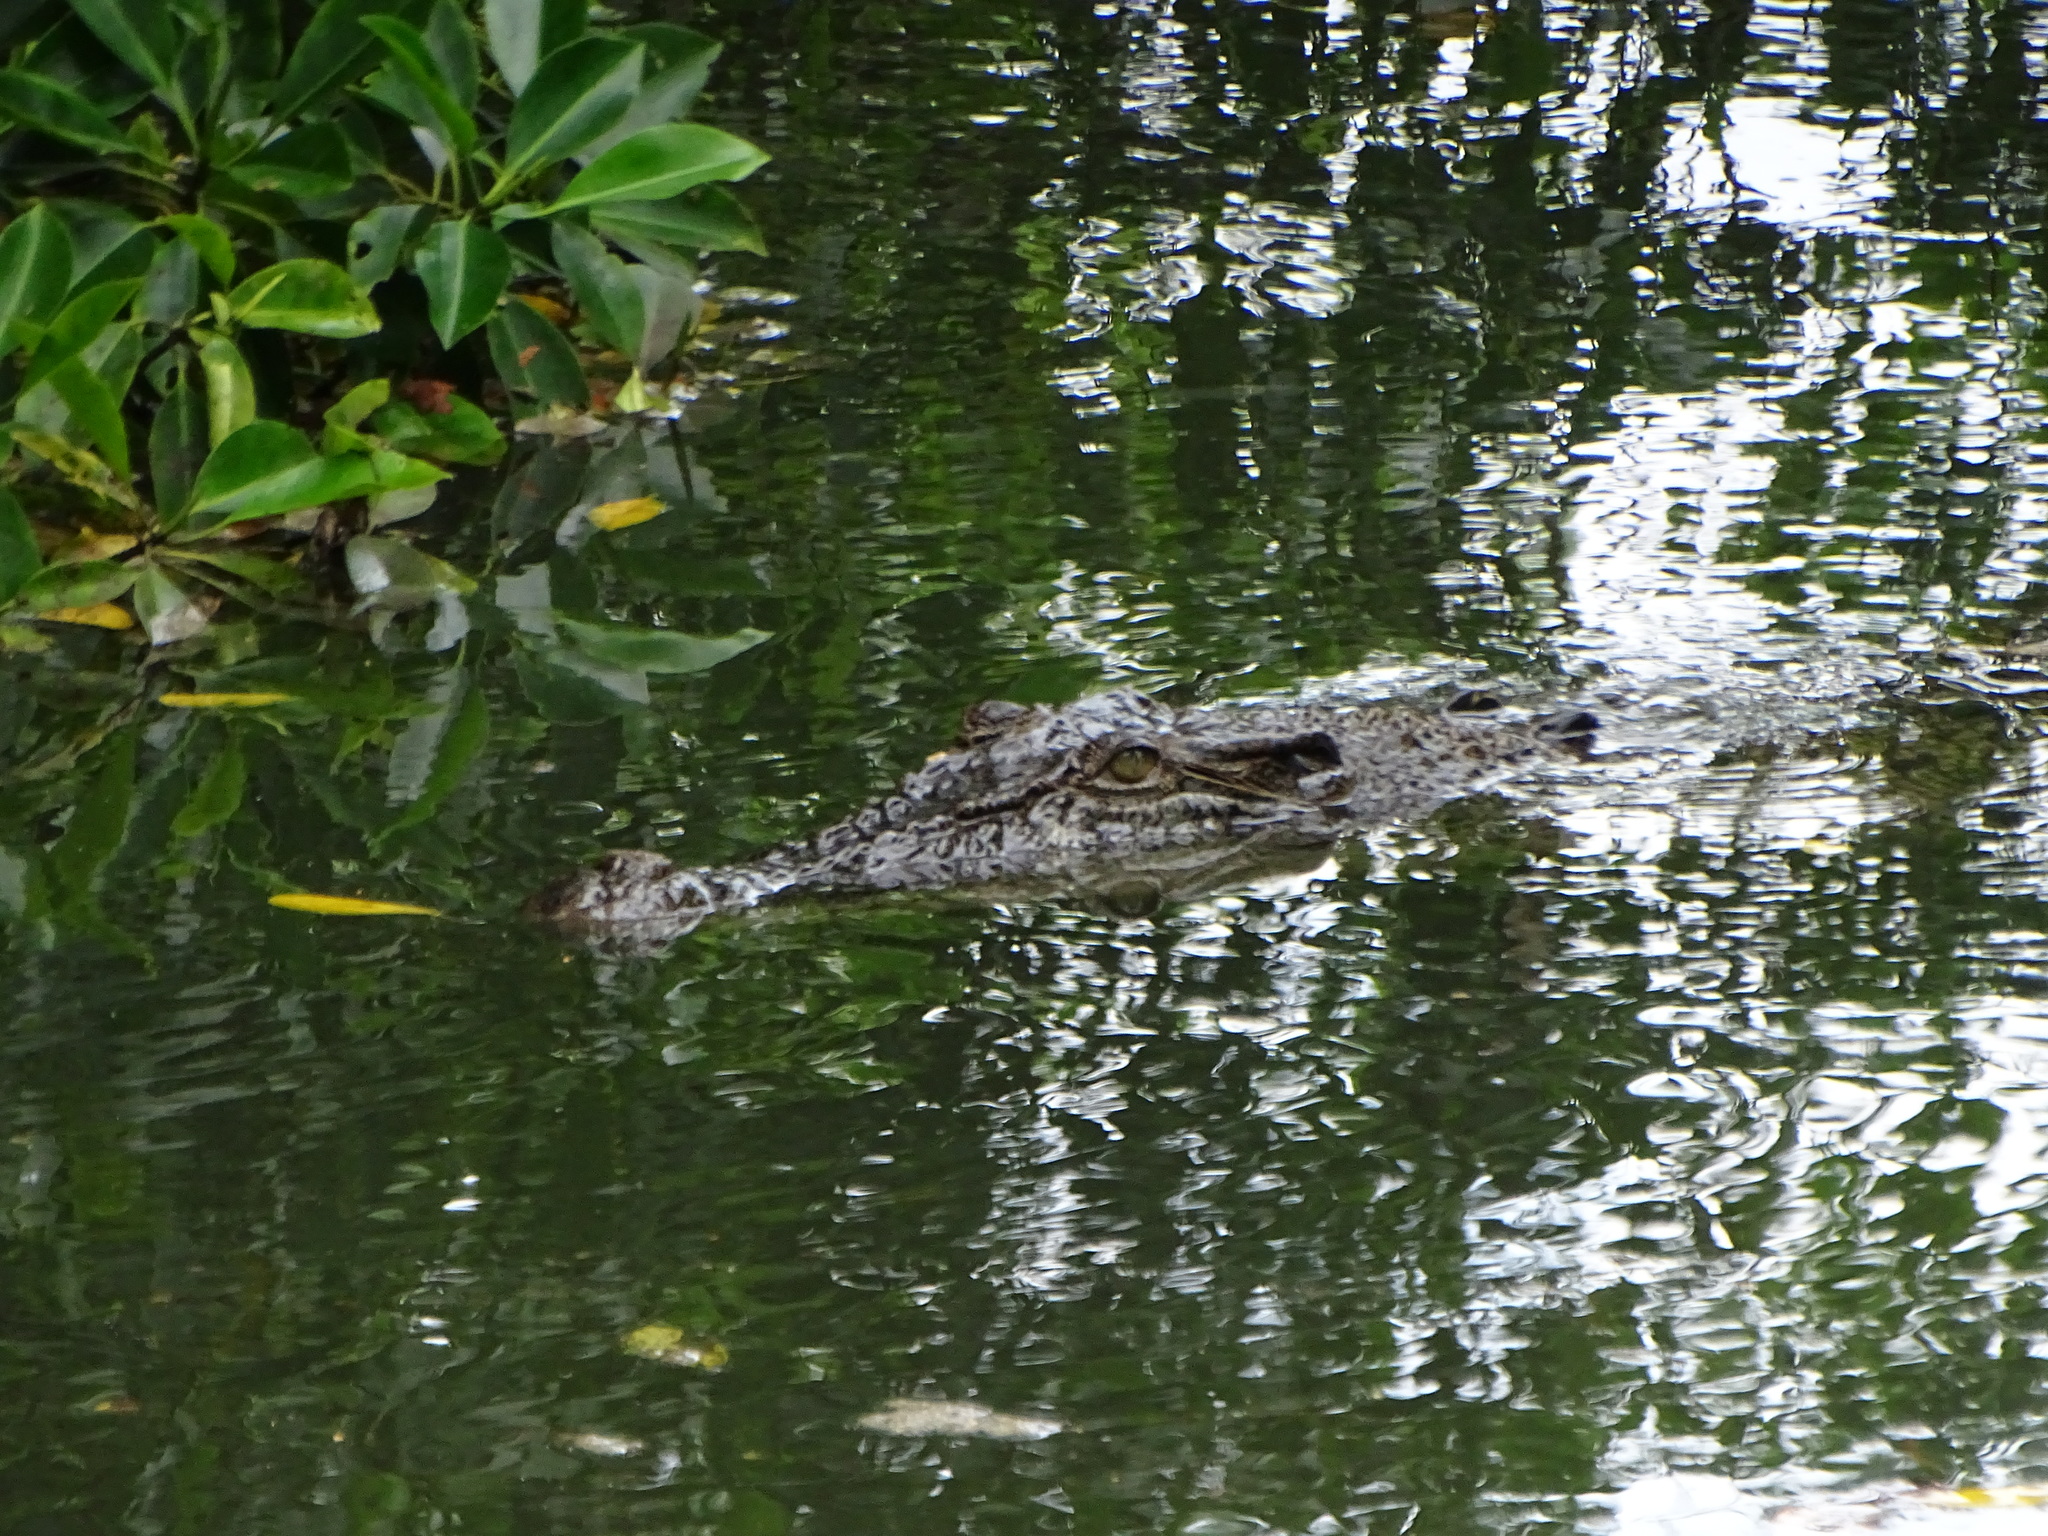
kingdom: Animalia
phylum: Chordata
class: Crocodylia
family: Crocodylidae
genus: Crocodylus
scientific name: Crocodylus porosus
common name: Saltwater crocodile
